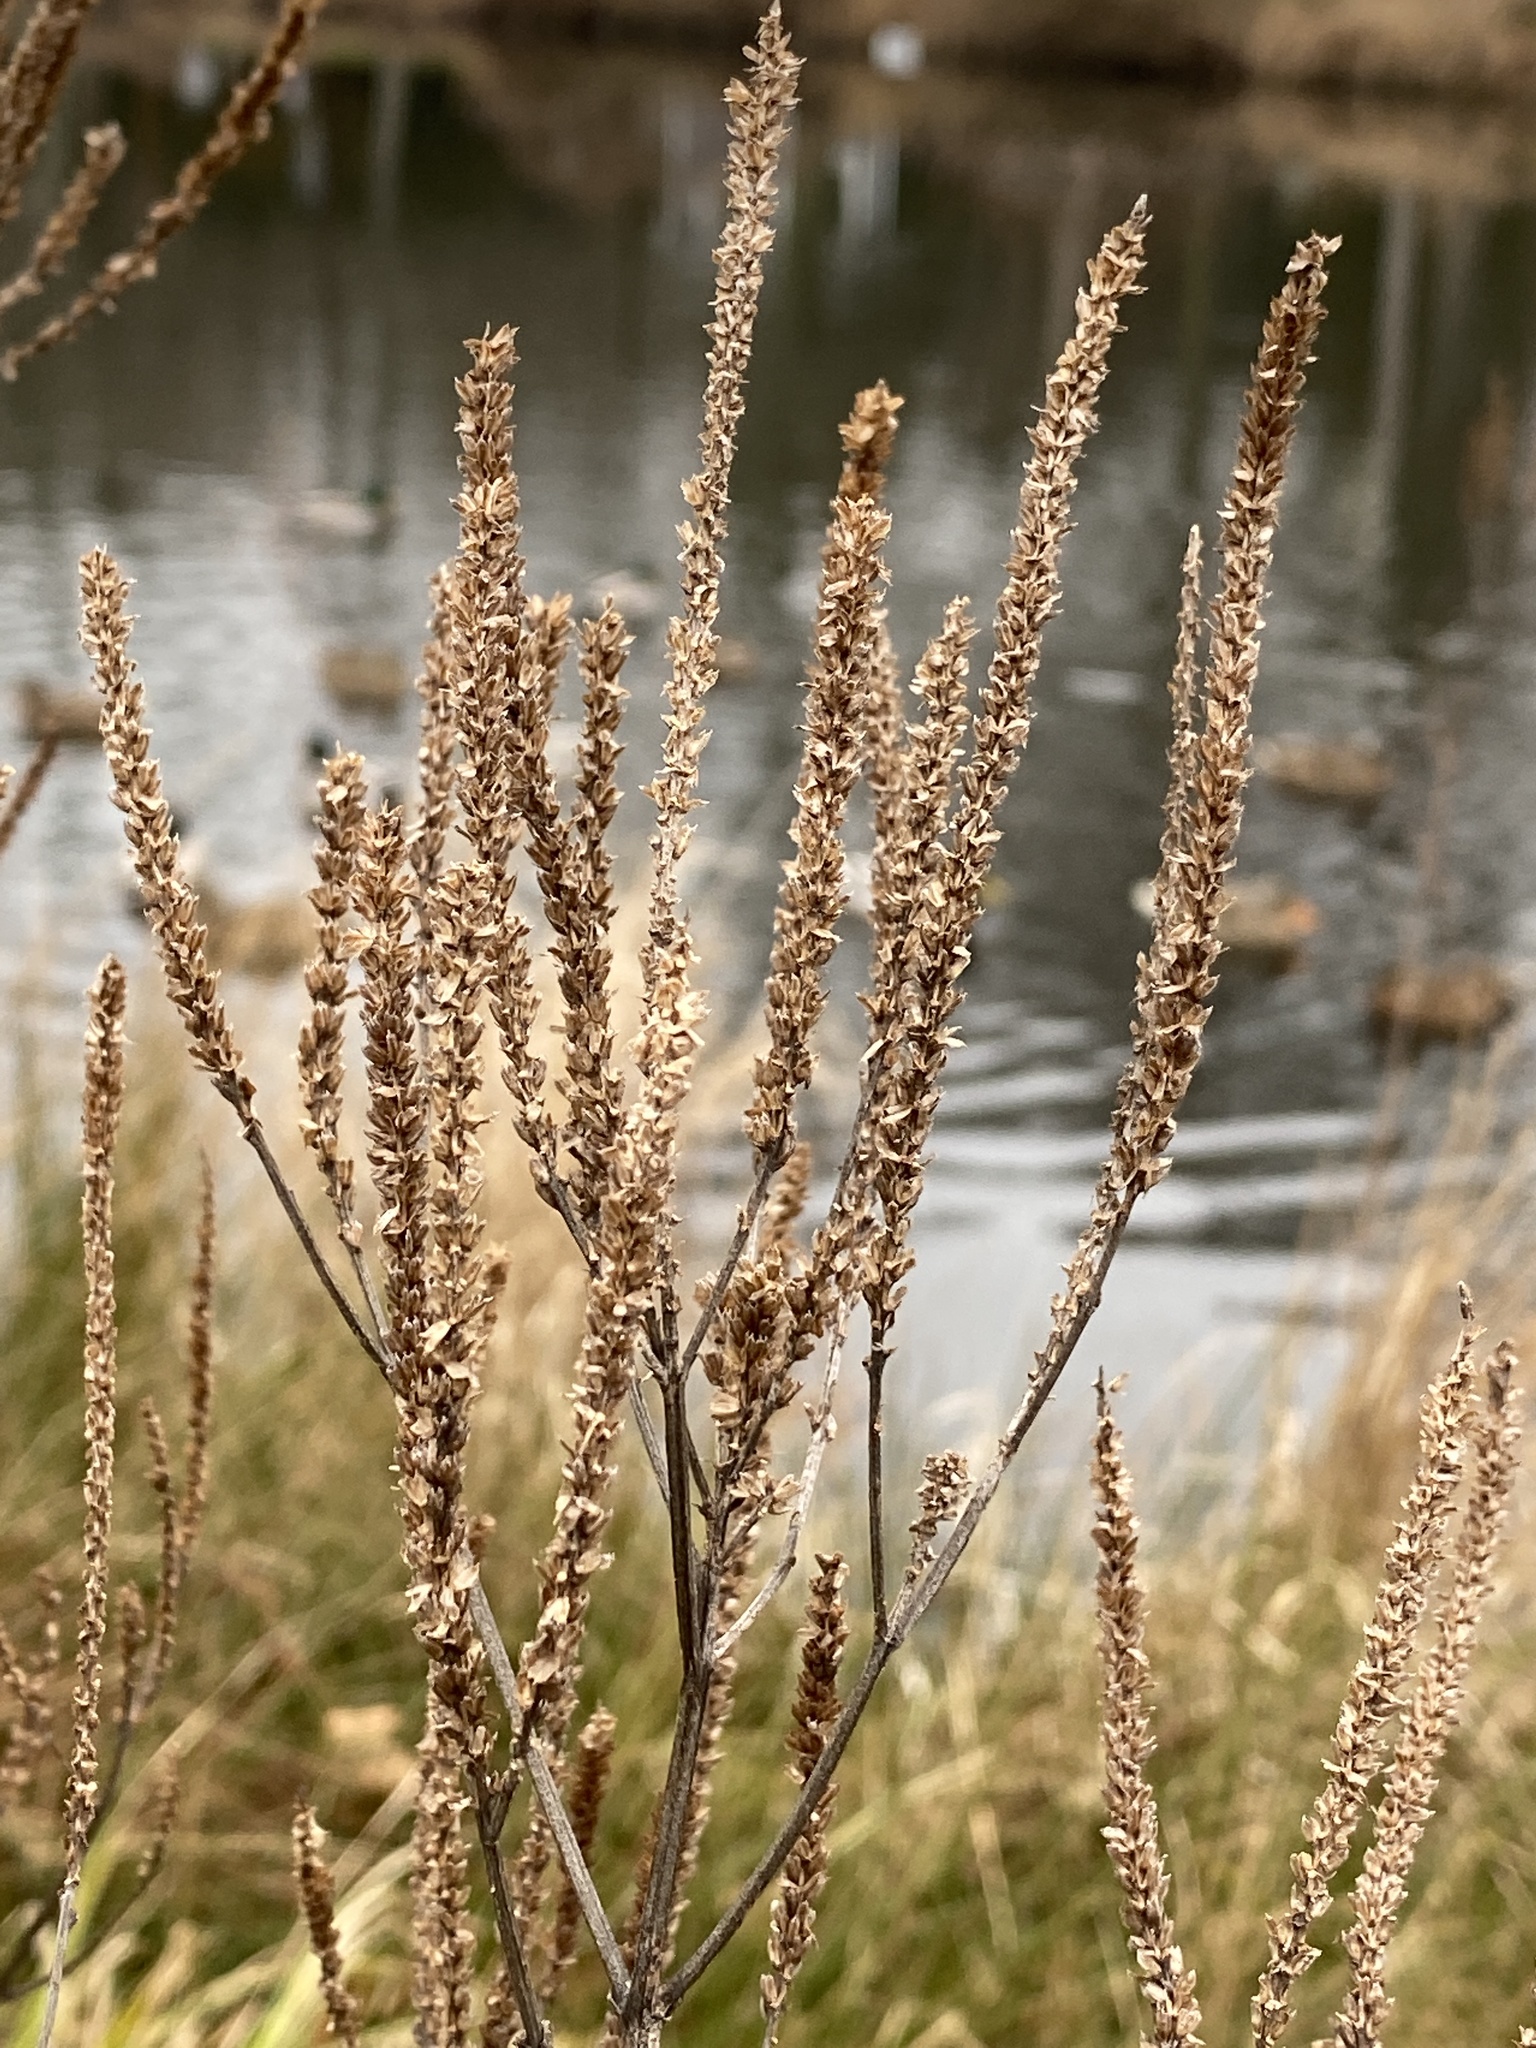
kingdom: Plantae
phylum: Tracheophyta
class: Magnoliopsida
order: Lamiales
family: Verbenaceae
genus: Verbena
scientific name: Verbena hastata
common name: American blue vervain
